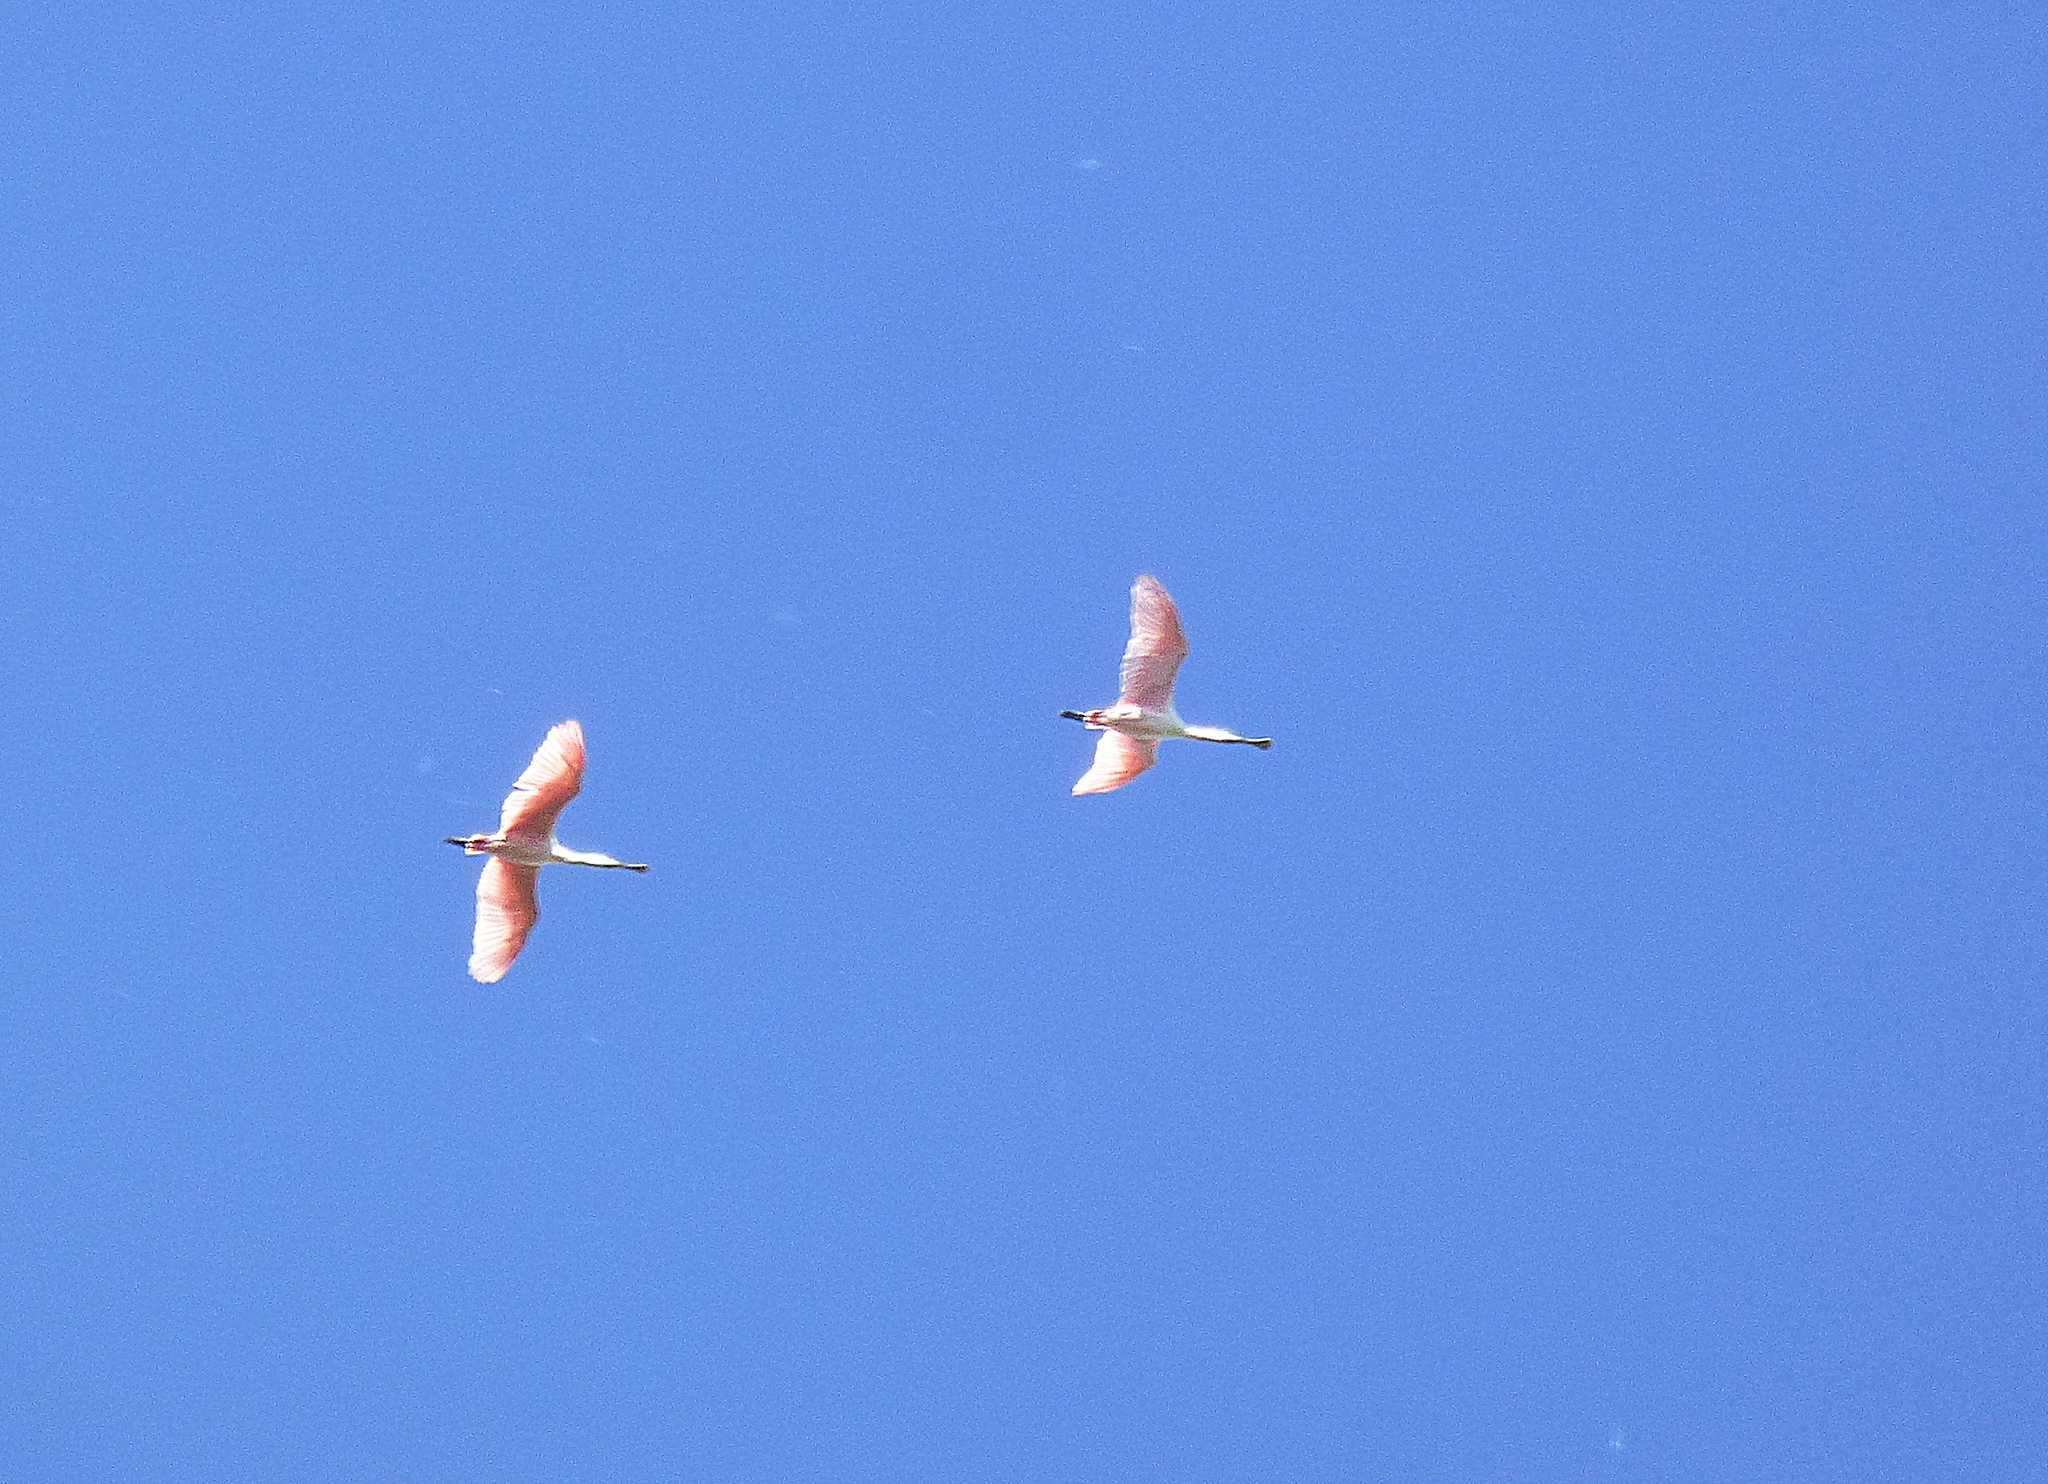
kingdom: Animalia
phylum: Chordata
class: Aves
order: Pelecaniformes
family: Threskiornithidae
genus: Platalea
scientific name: Platalea ajaja
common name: Roseate spoonbill
